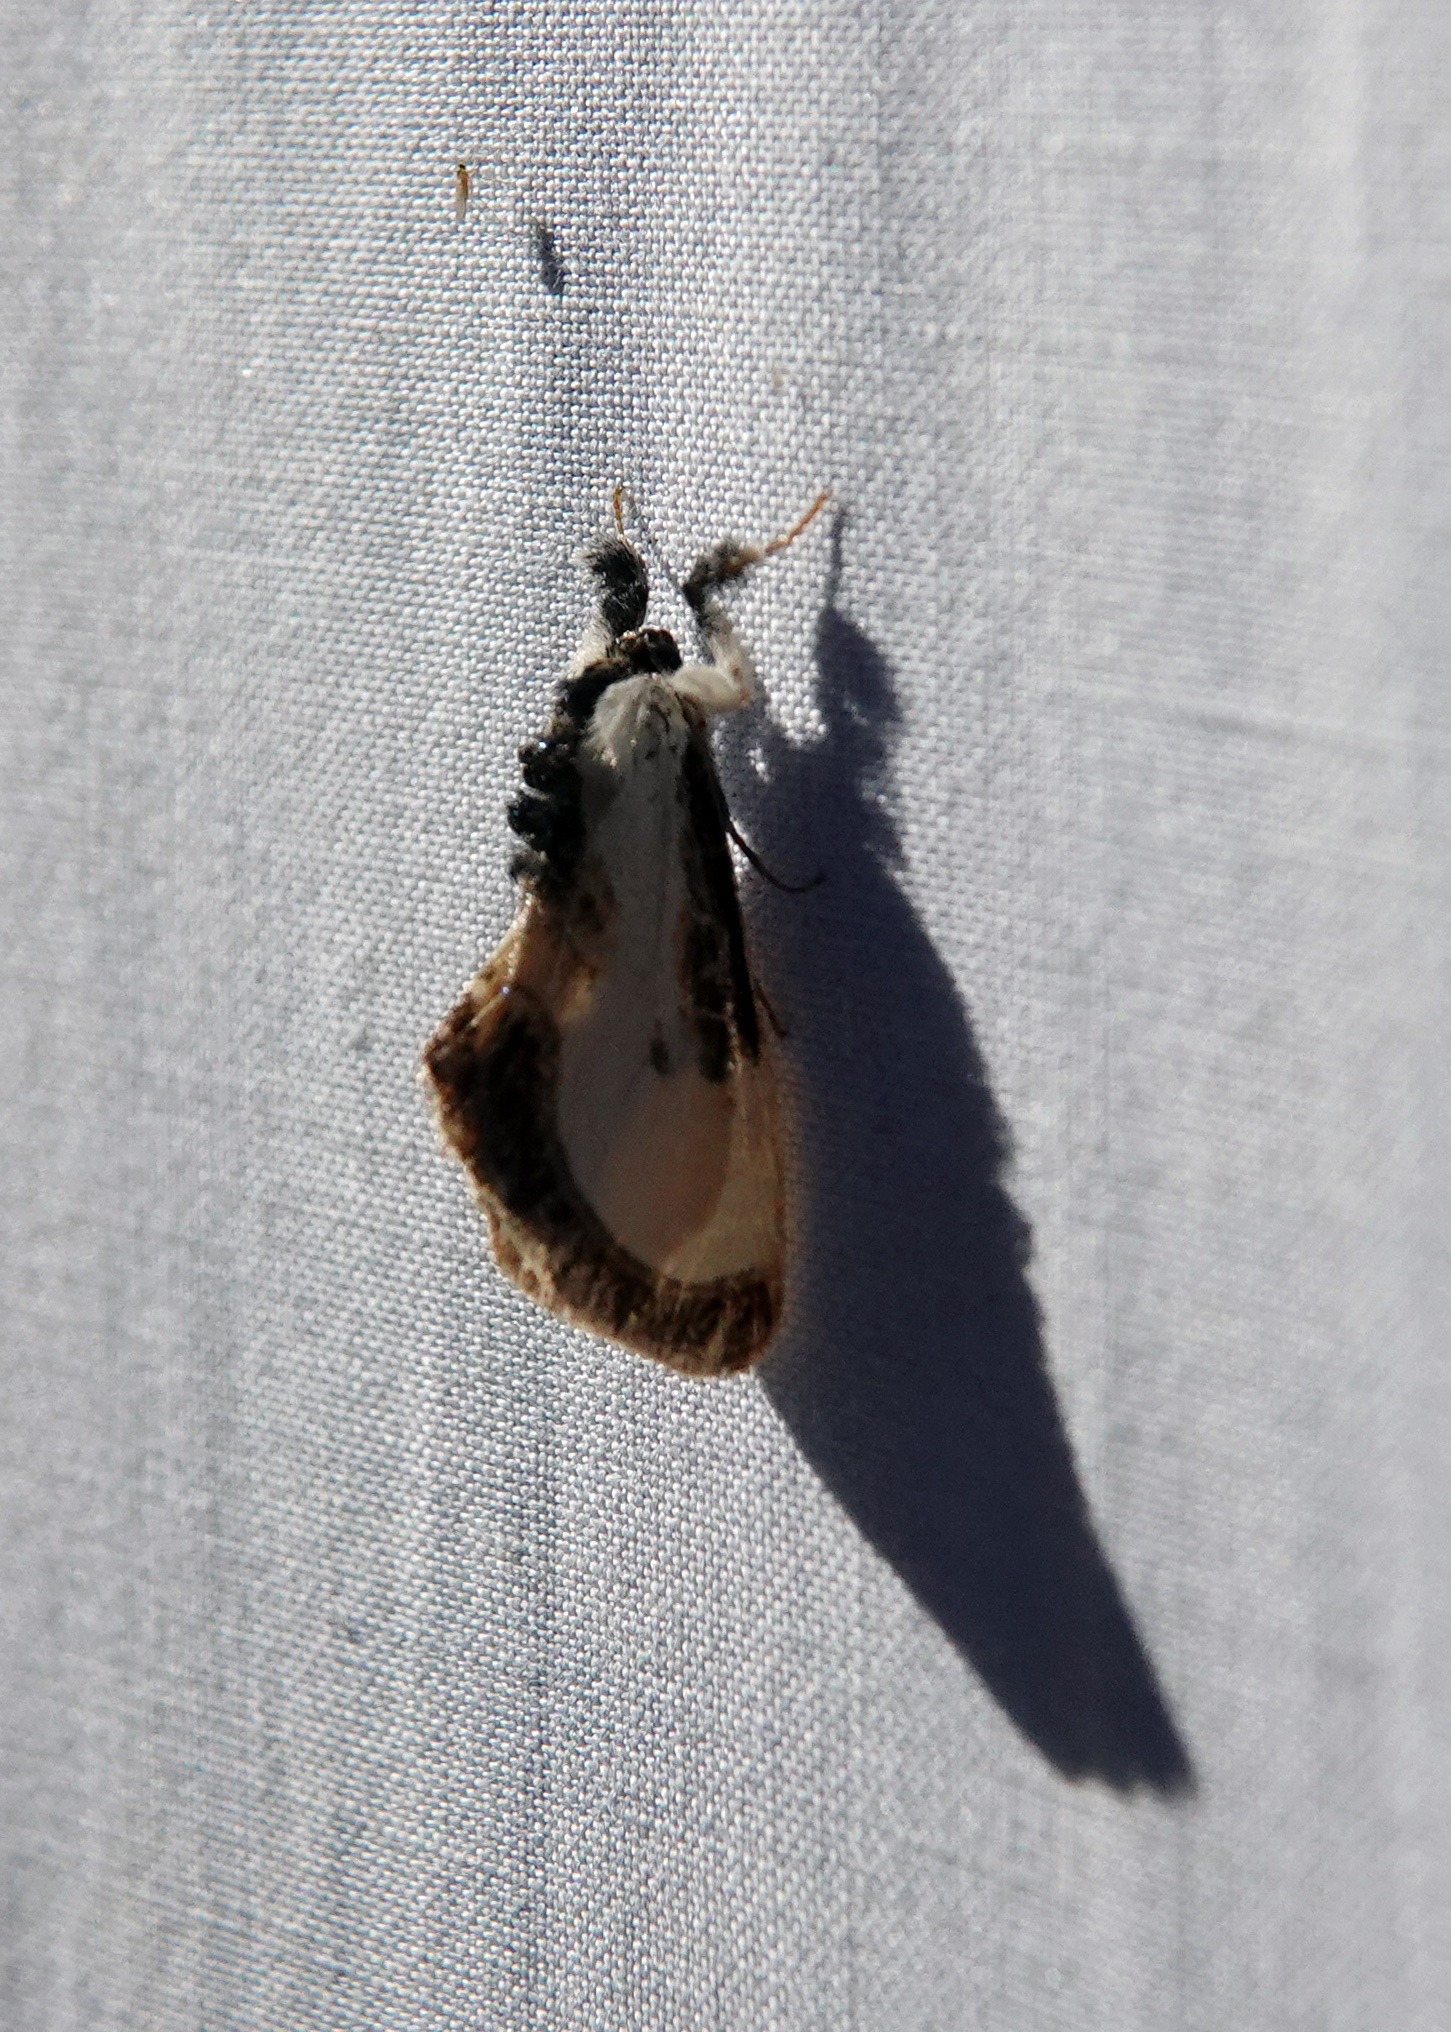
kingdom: Animalia
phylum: Arthropoda
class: Insecta
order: Lepidoptera
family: Noctuidae
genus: Eudryas
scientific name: Eudryas grata
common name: Beautiful wood-nymph
